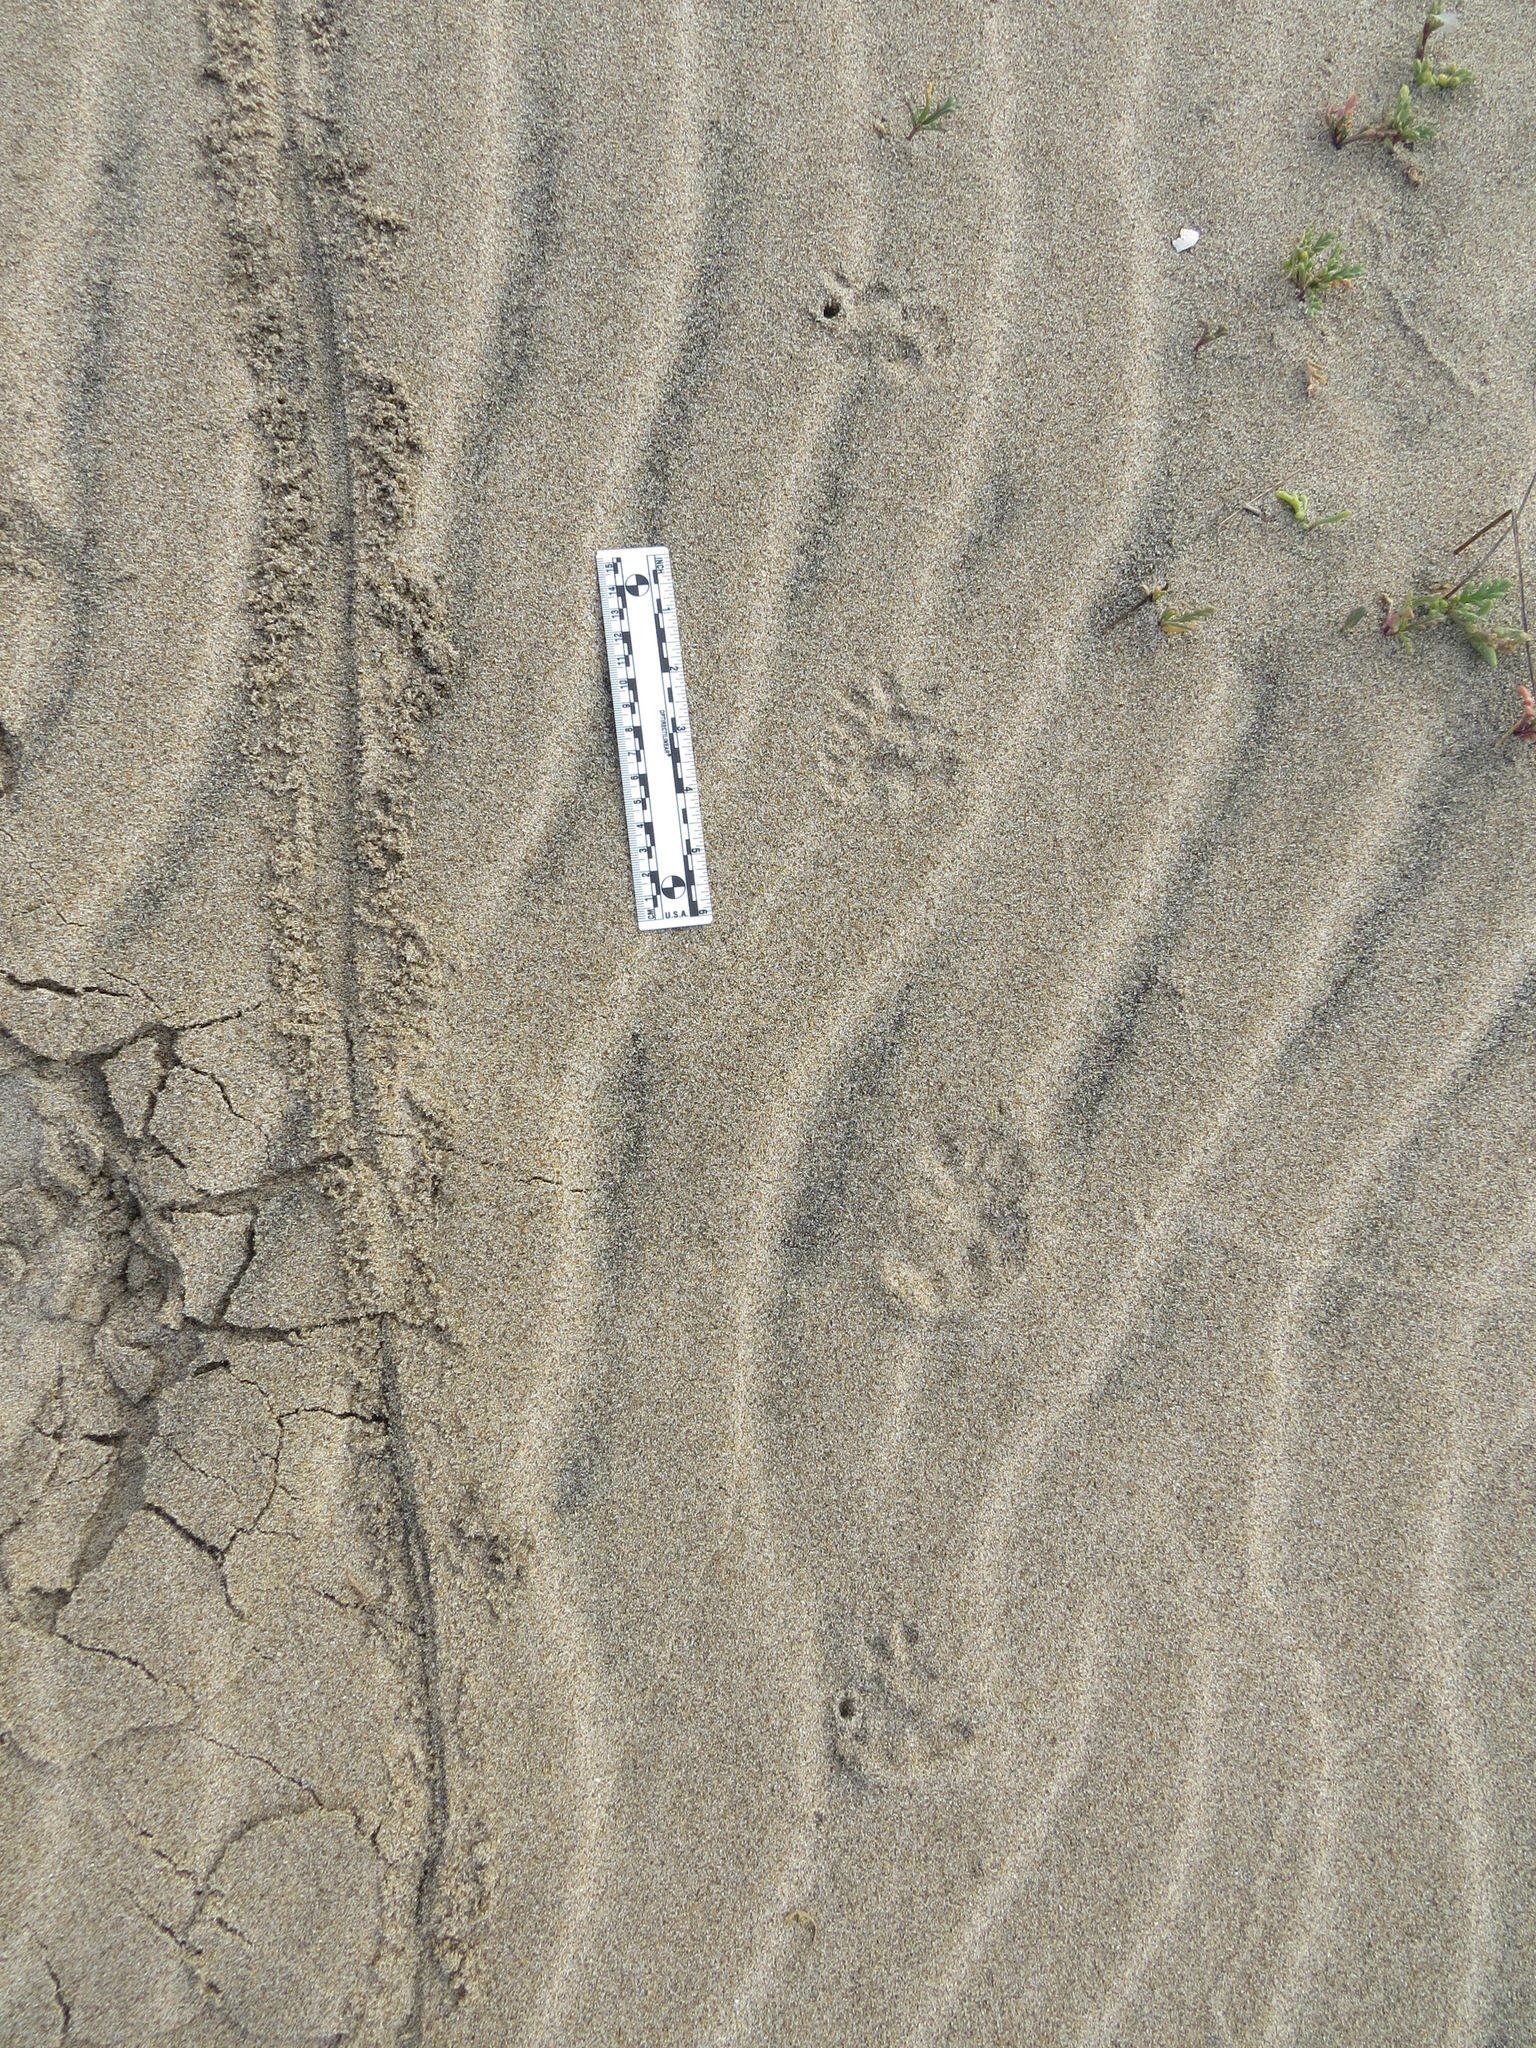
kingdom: Animalia
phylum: Chordata
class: Mammalia
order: Didelphimorphia
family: Didelphidae
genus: Didelphis
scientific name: Didelphis virginiana
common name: Virginia opossum
